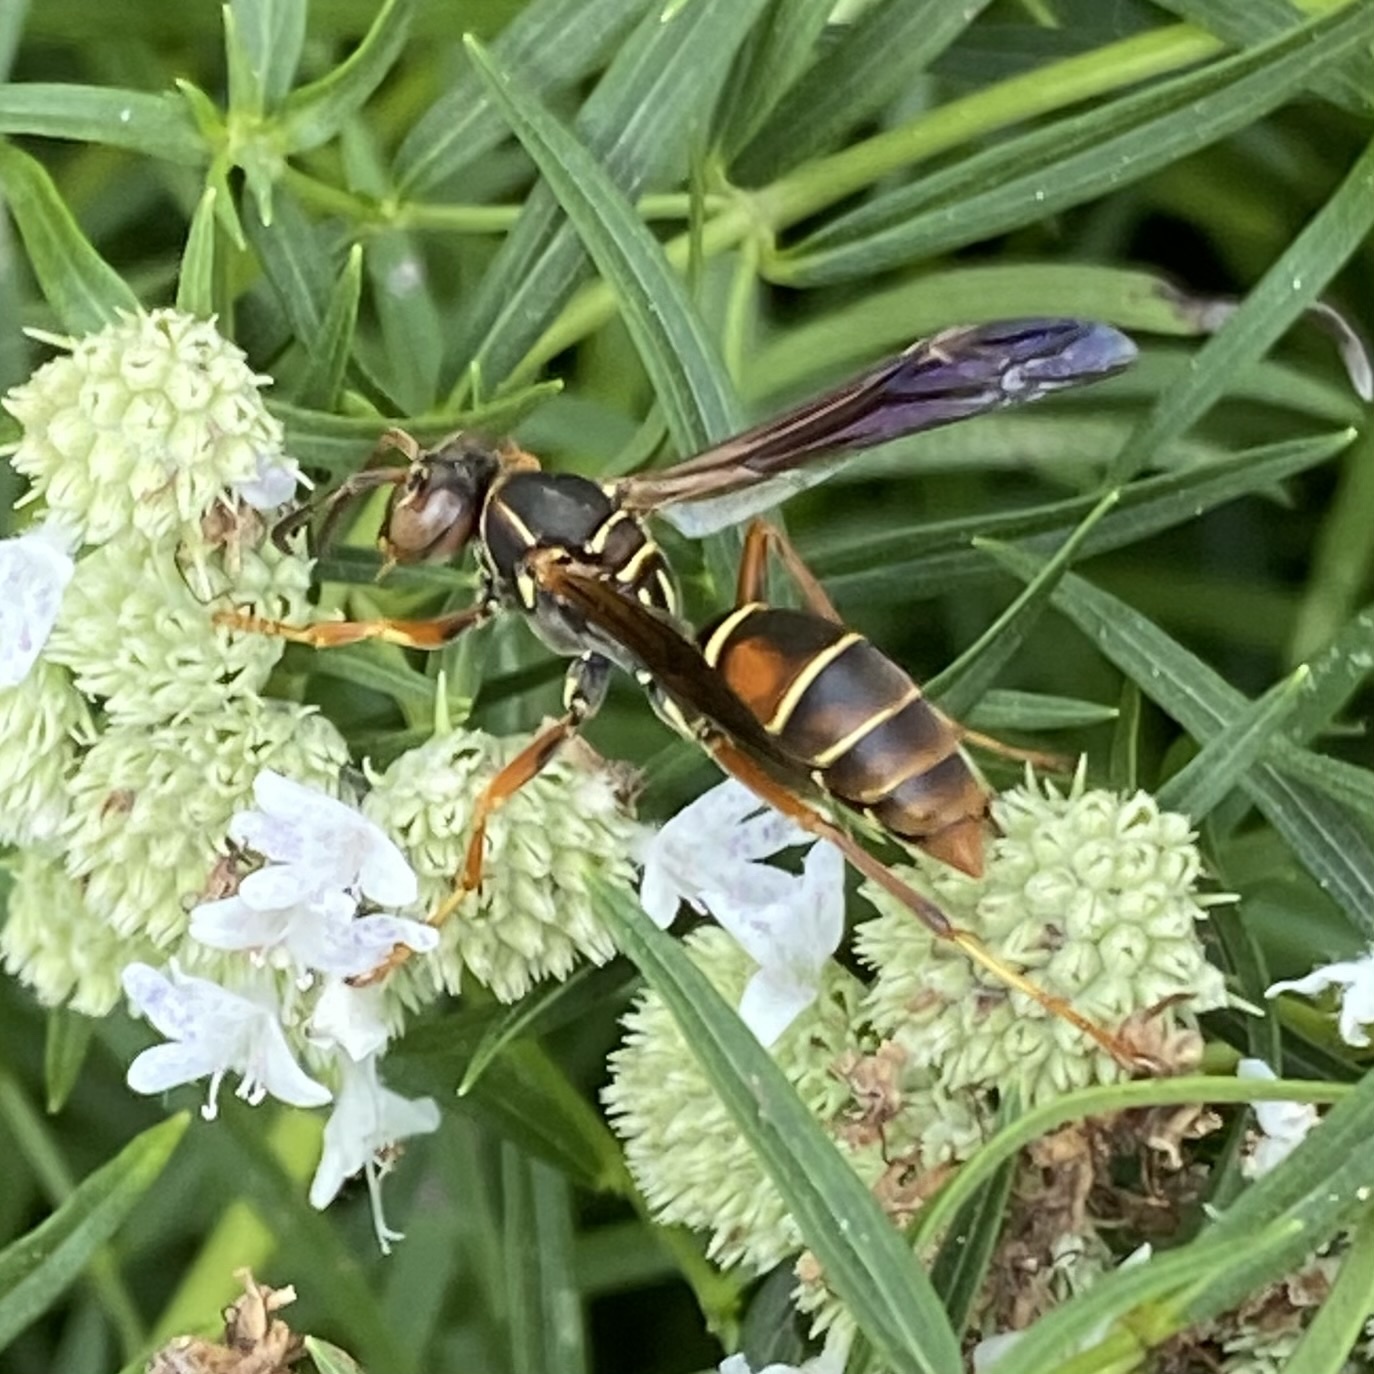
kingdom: Animalia
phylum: Arthropoda
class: Insecta
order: Hymenoptera
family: Eumenidae
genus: Polistes
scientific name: Polistes fuscatus
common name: Dark paper wasp
